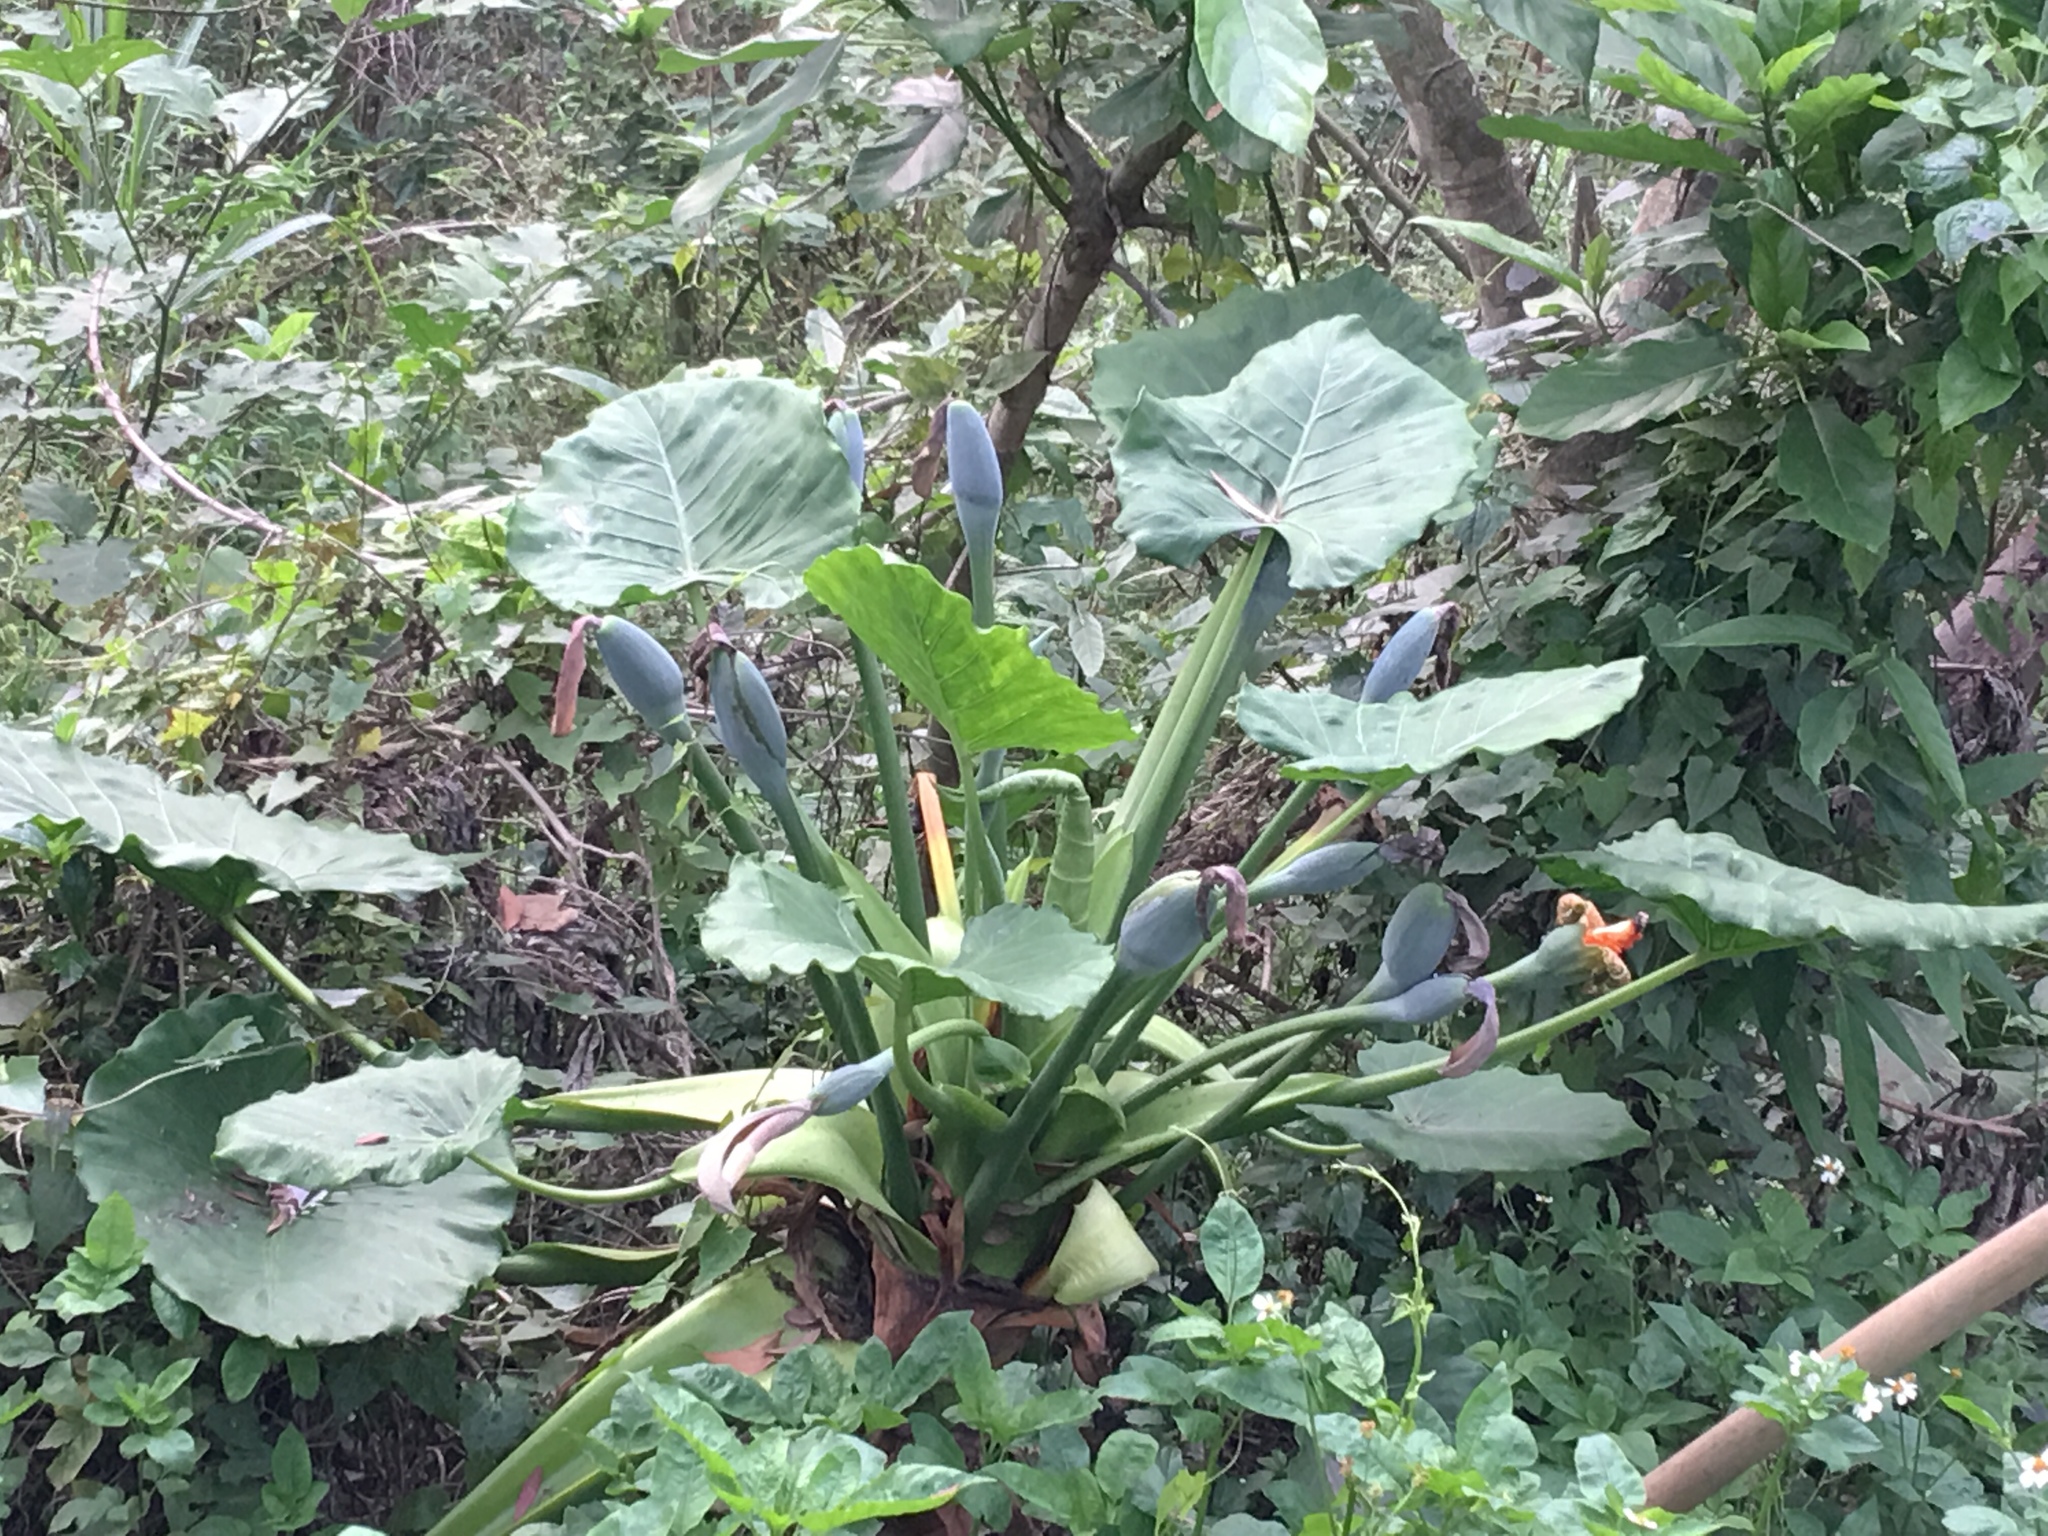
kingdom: Plantae
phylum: Tracheophyta
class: Liliopsida
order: Alismatales
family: Araceae
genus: Alocasia
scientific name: Alocasia macrorrhizos
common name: Giant taro
